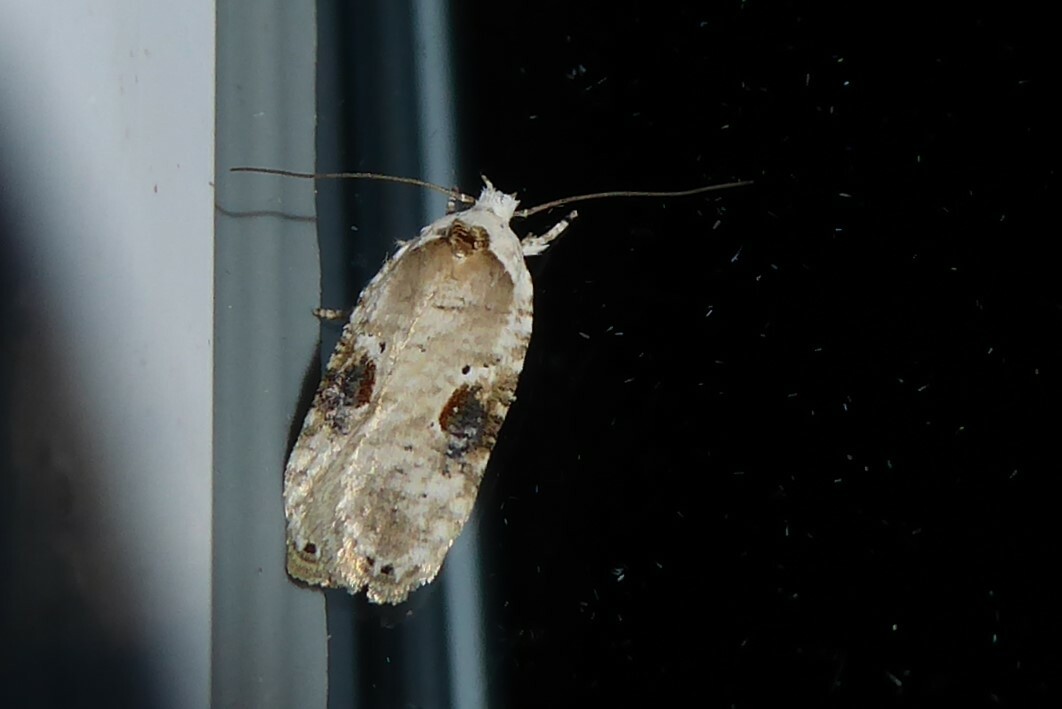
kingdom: Animalia
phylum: Arthropoda
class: Insecta
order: Lepidoptera
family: Depressariidae
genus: Agonopterix
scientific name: Agonopterix alstroemeriana
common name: Moth
